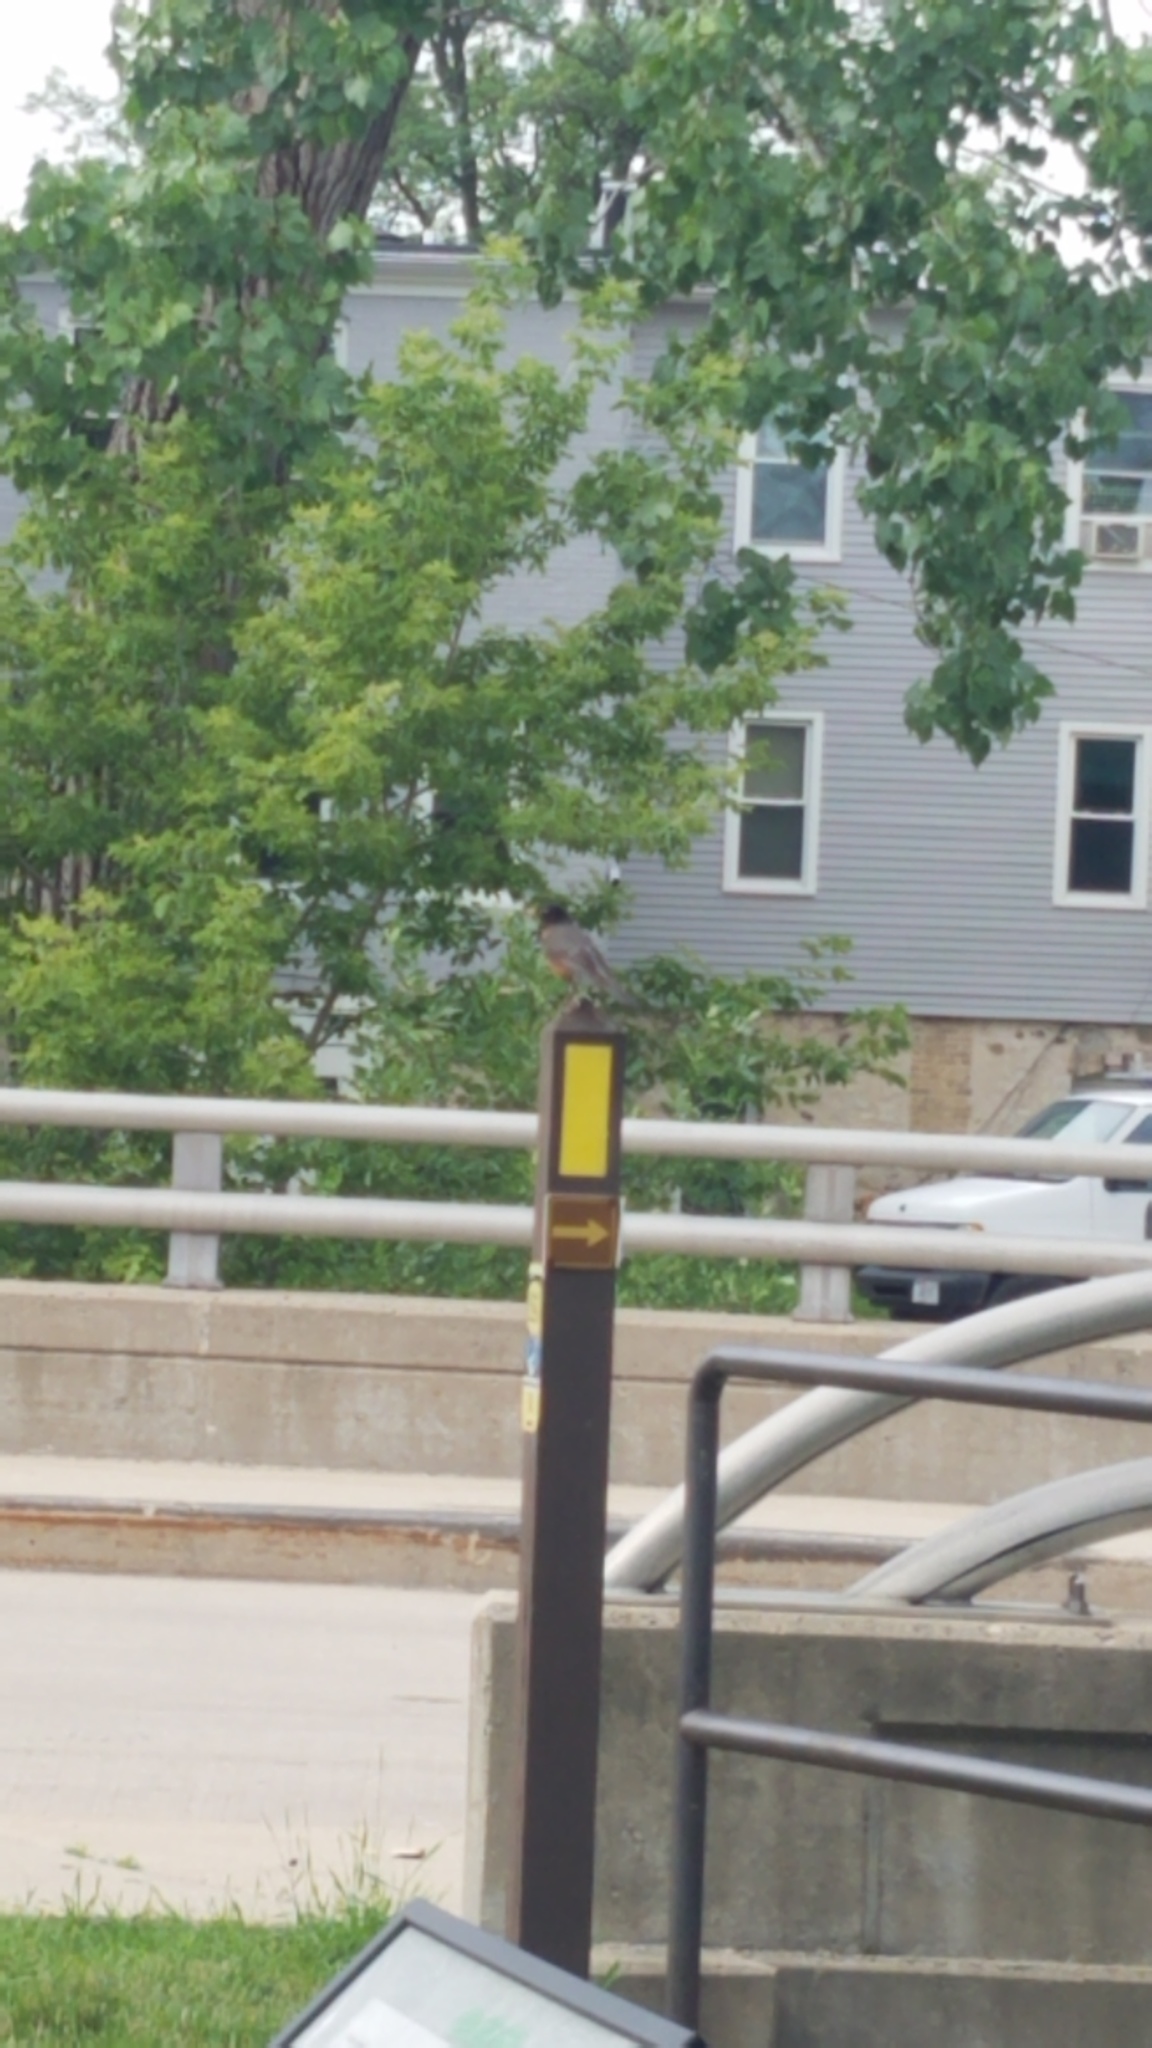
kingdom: Animalia
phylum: Chordata
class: Aves
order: Passeriformes
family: Turdidae
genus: Turdus
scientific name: Turdus migratorius
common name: American robin
